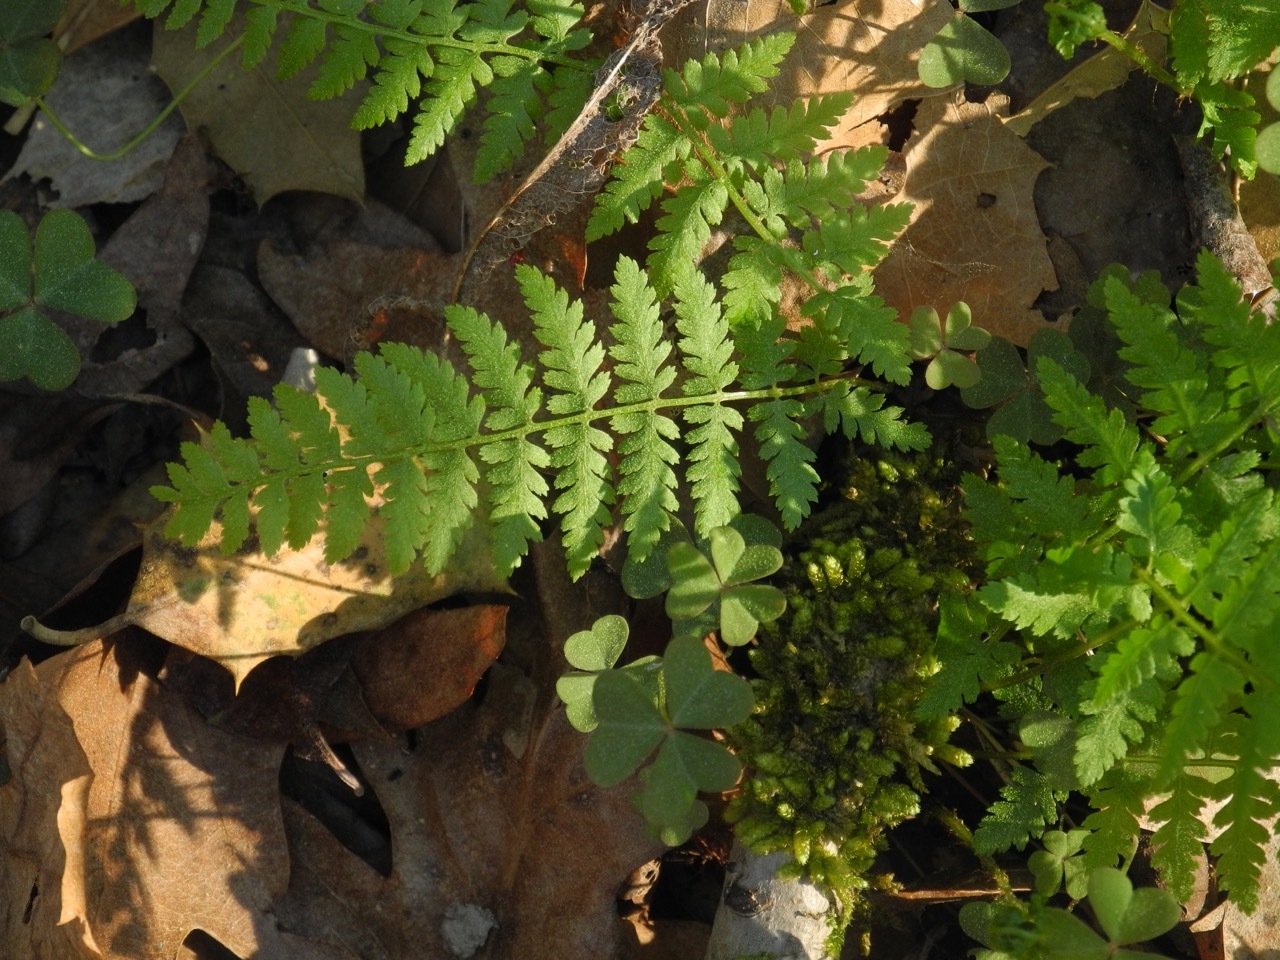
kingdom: Plantae
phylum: Tracheophyta
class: Polypodiopsida
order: Polypodiales
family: Athyriaceae
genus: Athyrium
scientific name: Athyrium asplenioides
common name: Southern lady fern
